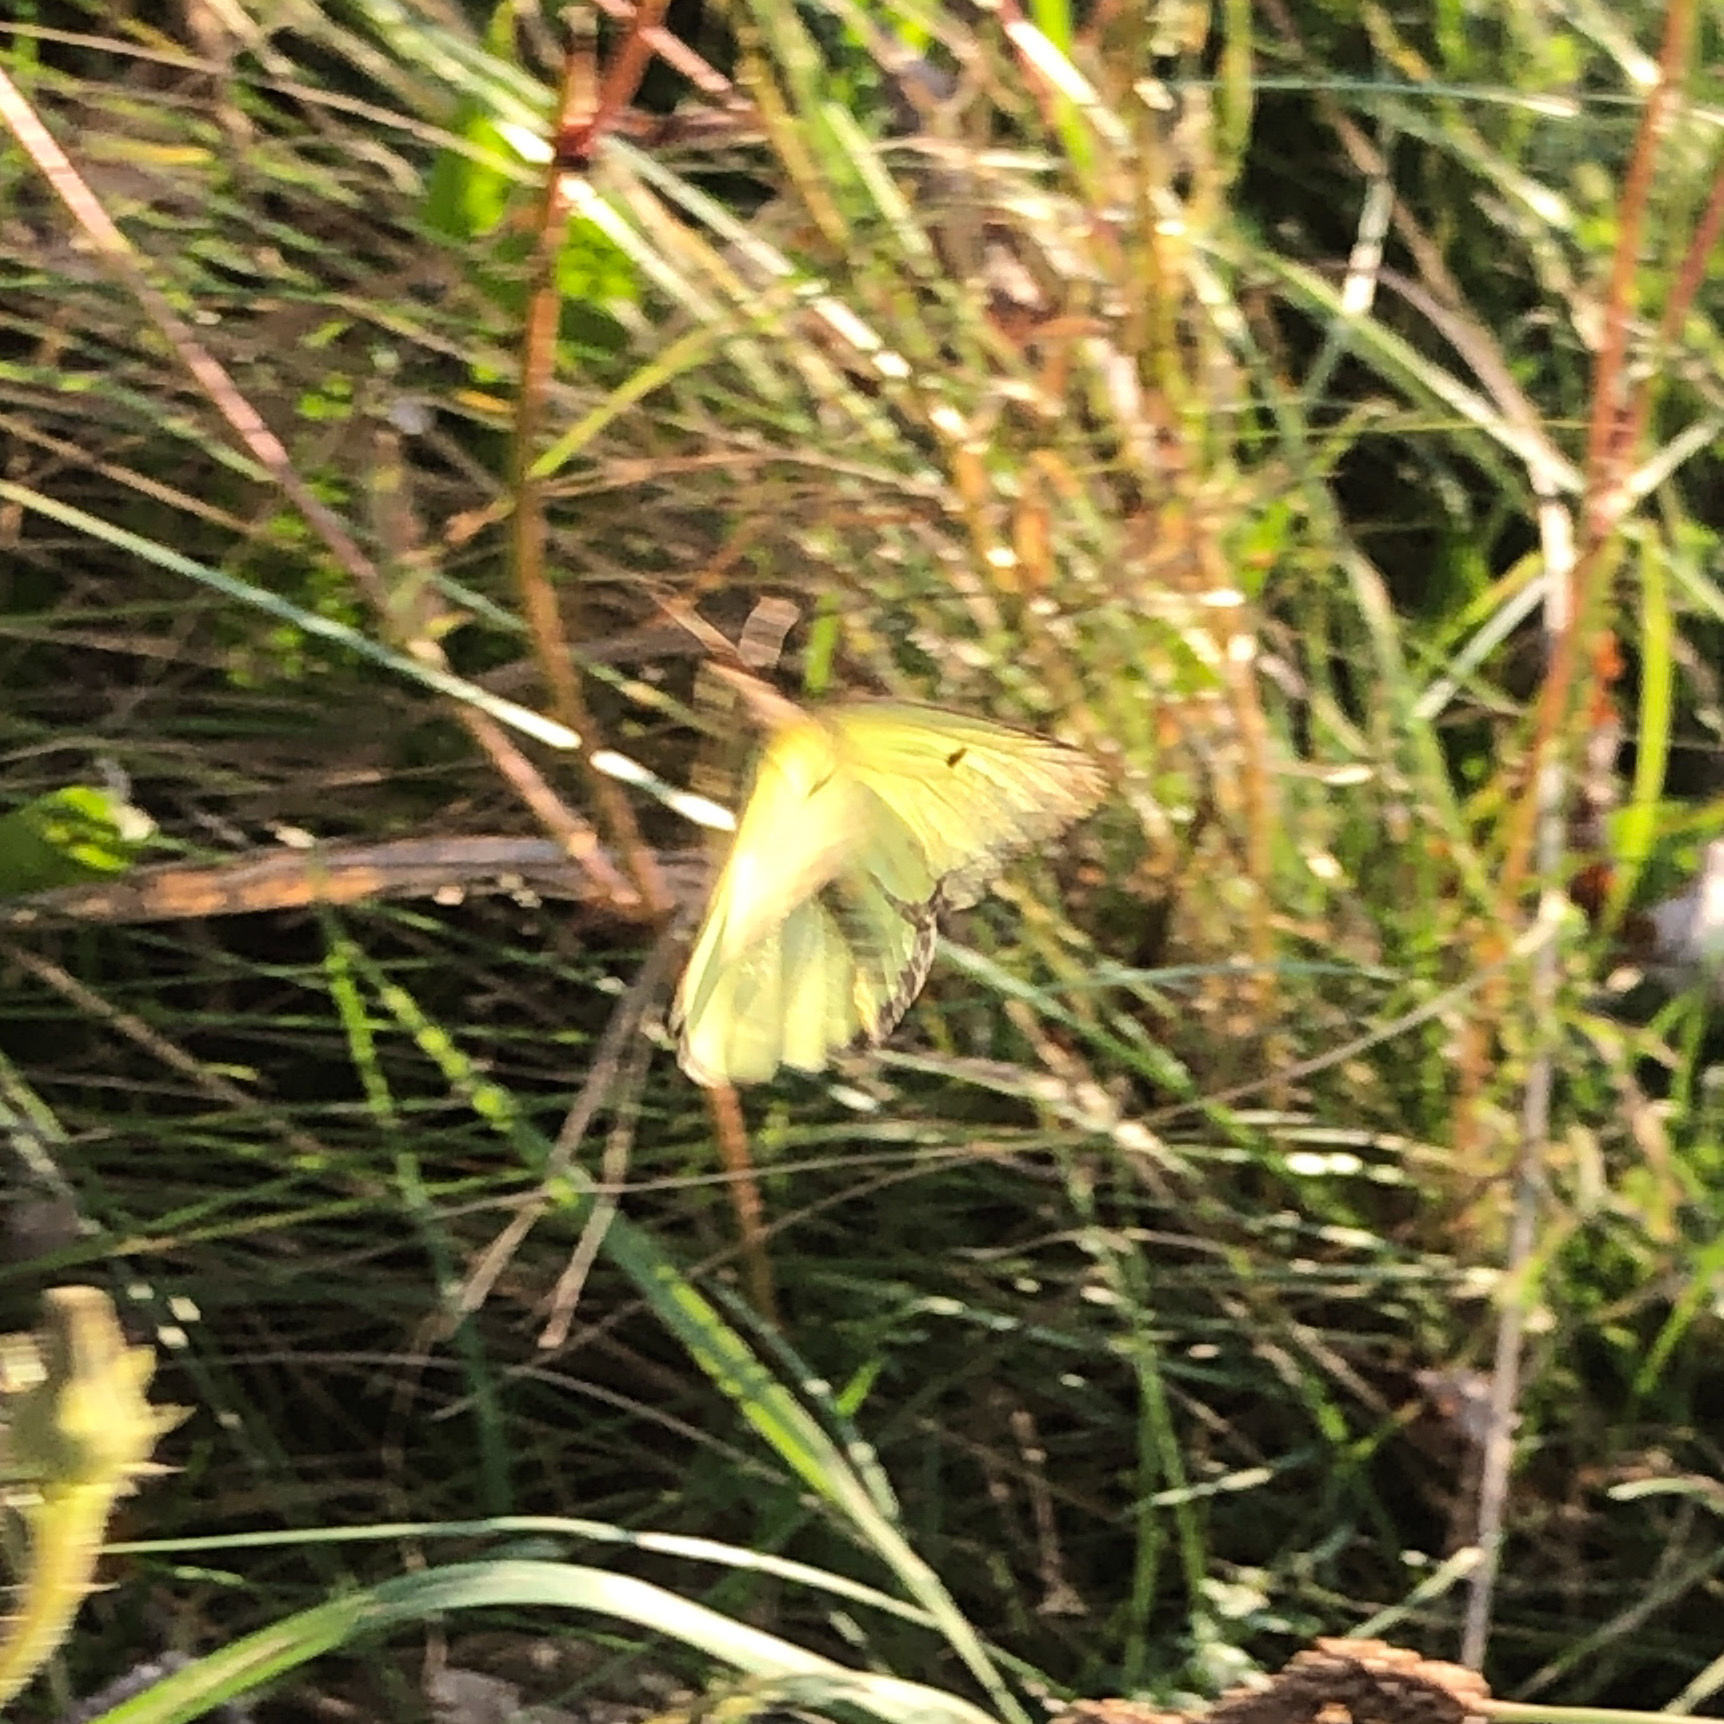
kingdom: Animalia
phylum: Arthropoda
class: Insecta
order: Lepidoptera
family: Pieridae
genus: Colias
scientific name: Colias philodice
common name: Clouded sulphur
